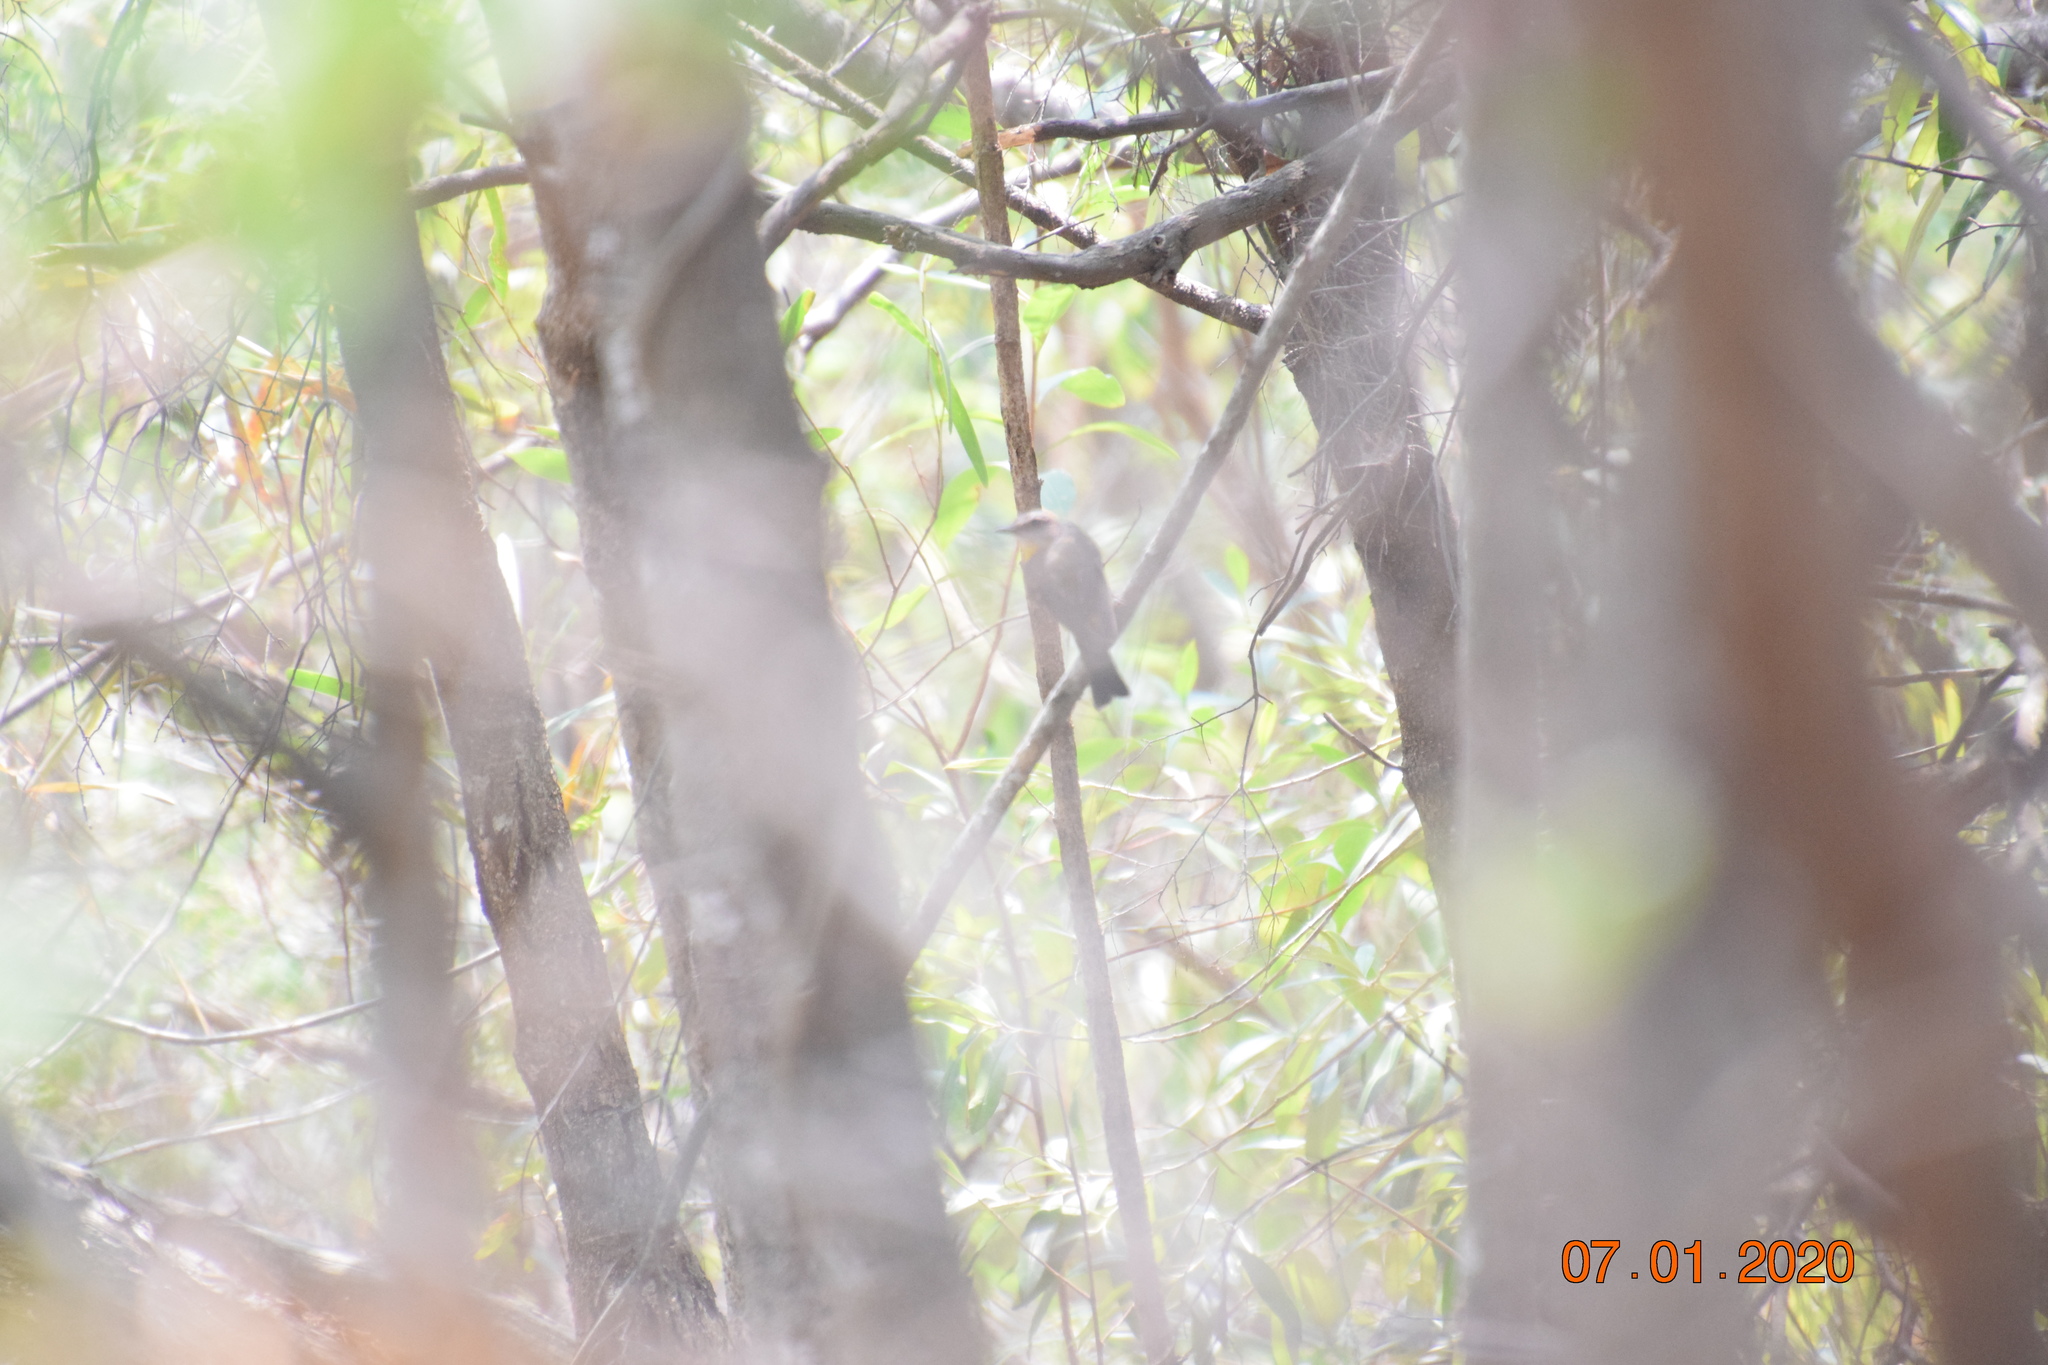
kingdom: Animalia
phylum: Chordata
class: Aves
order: Passeriformes
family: Petroicidae
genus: Eopsaltria
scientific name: Eopsaltria australis
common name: Eastern yellow robin
